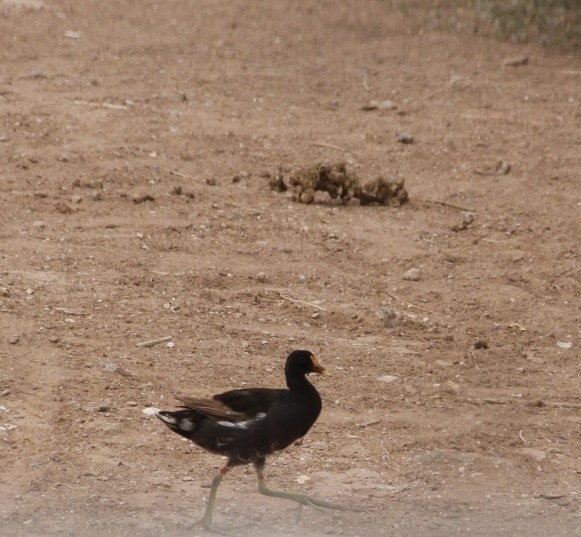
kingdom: Animalia
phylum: Chordata
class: Aves
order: Gruiformes
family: Rallidae
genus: Gallinula
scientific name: Gallinula chloropus
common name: Common moorhen
